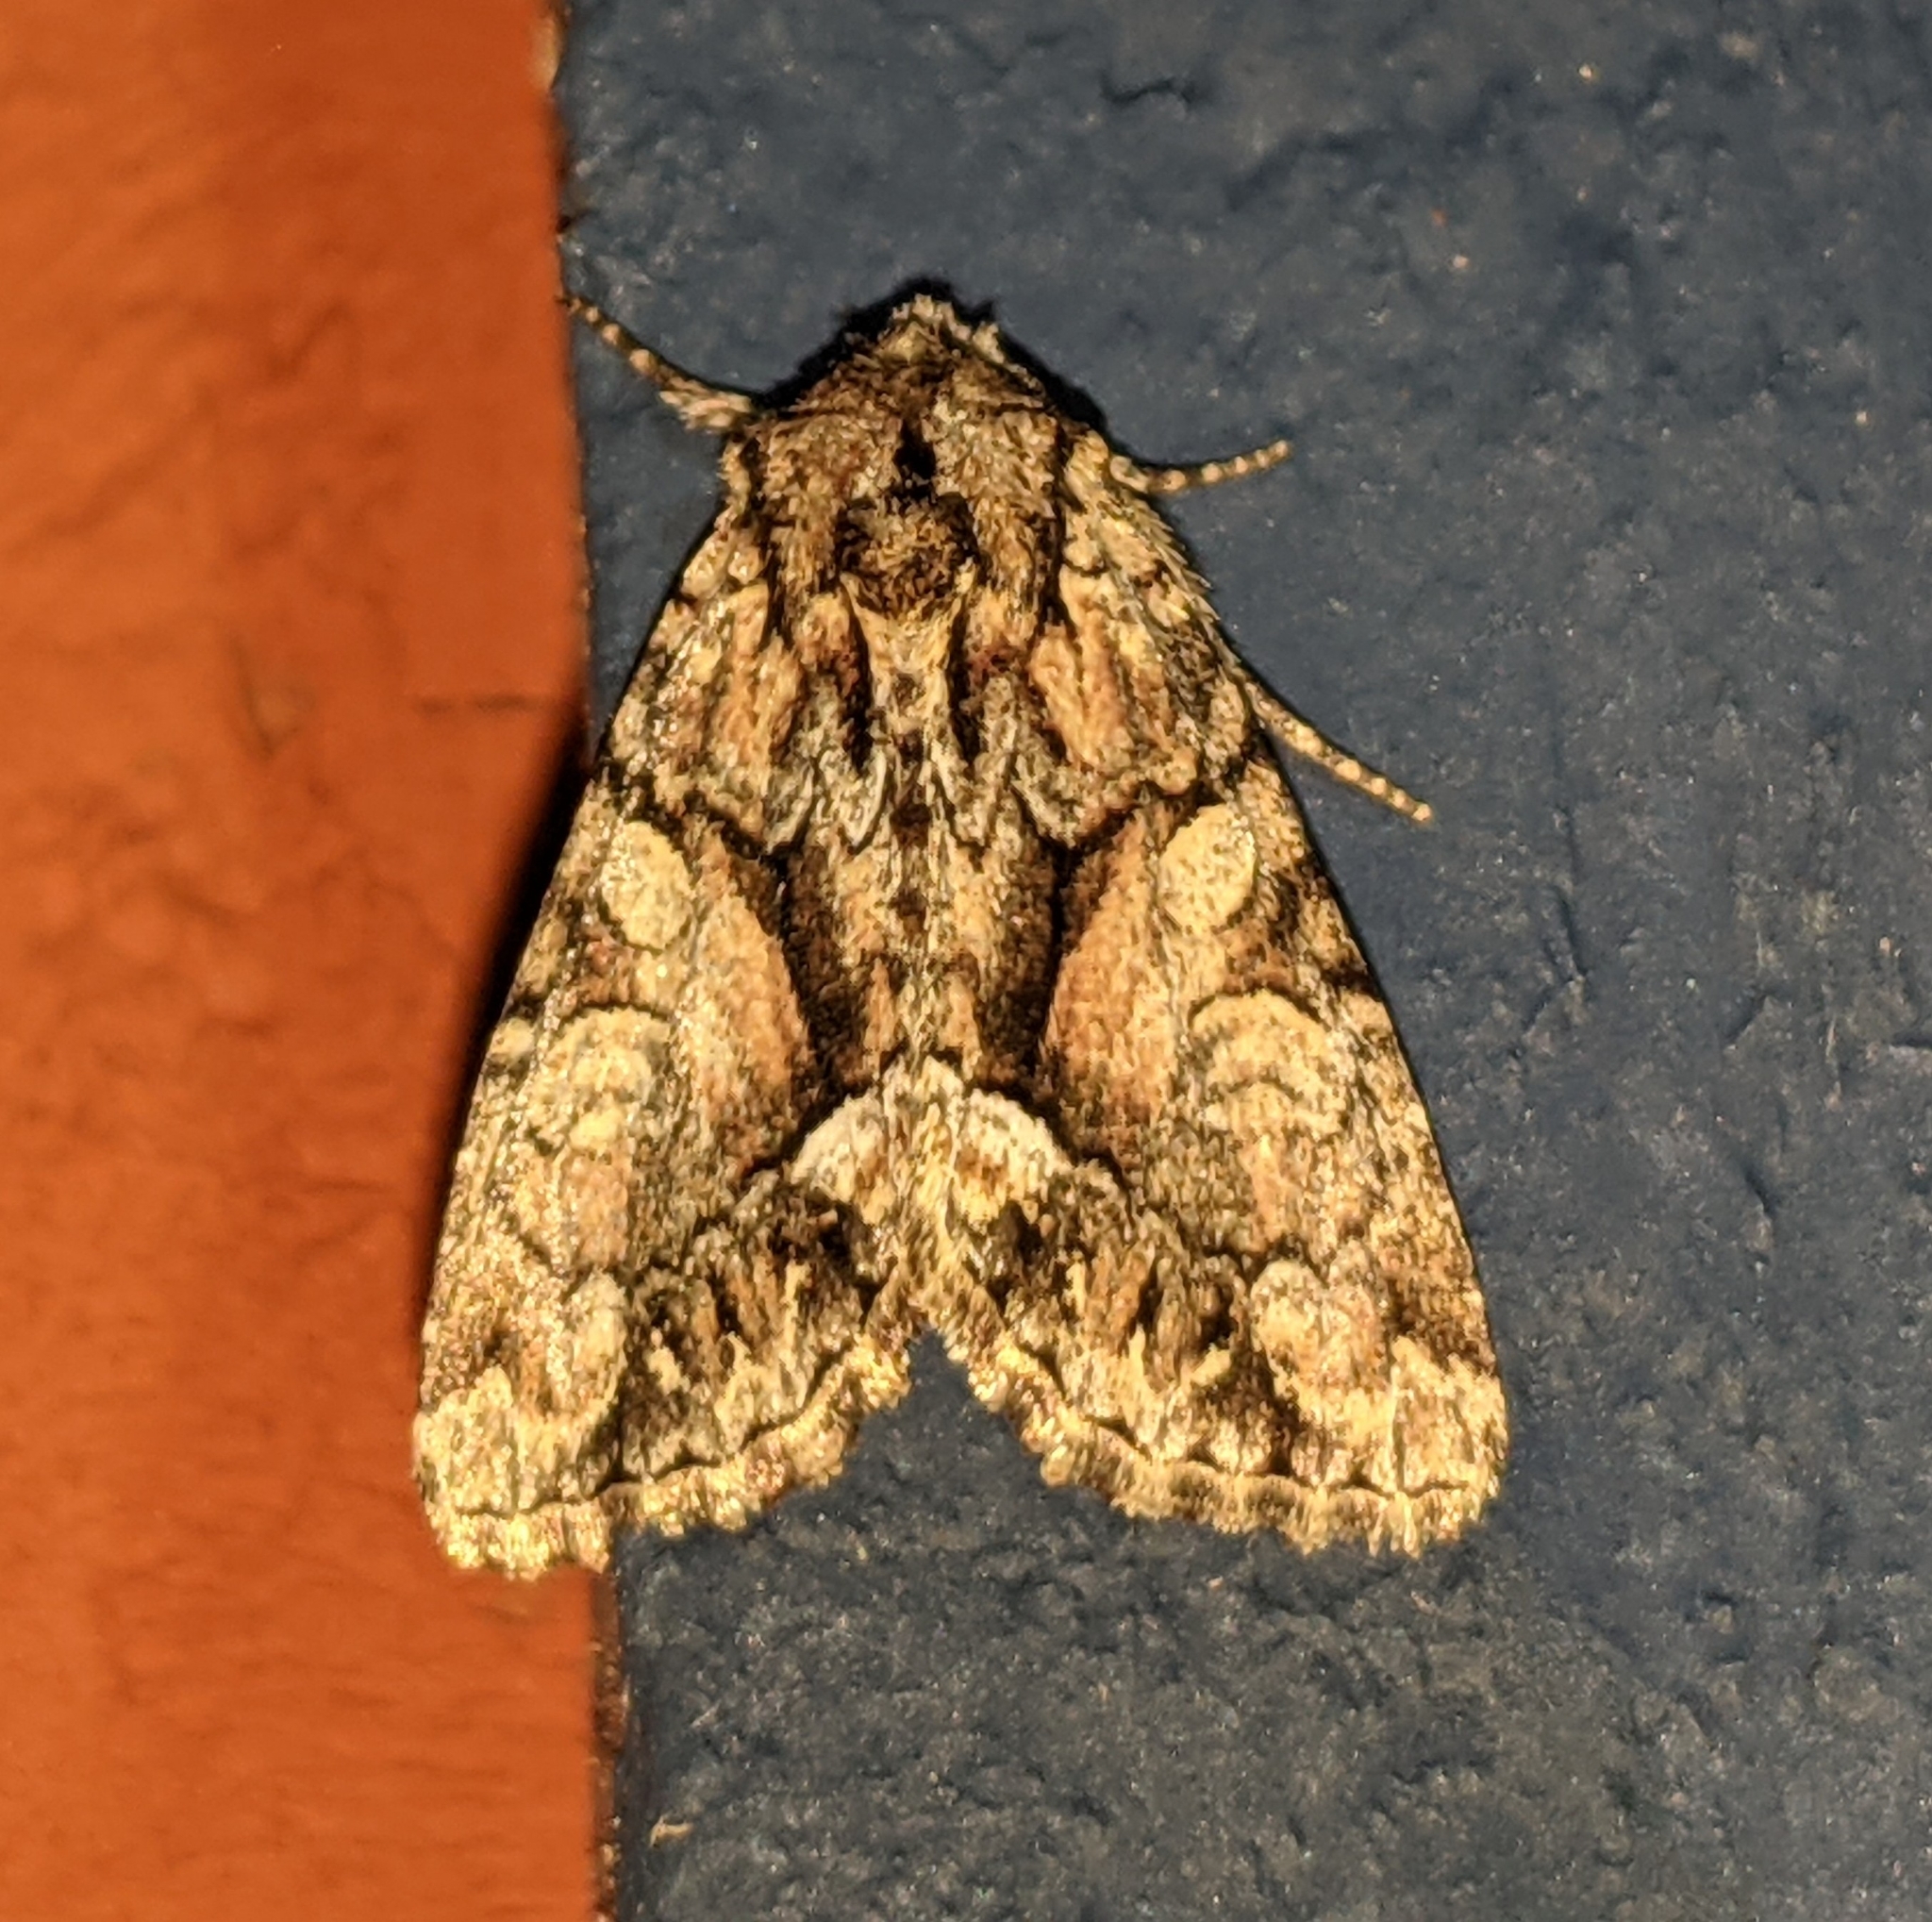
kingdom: Animalia
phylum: Arthropoda
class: Insecta
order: Lepidoptera
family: Noctuidae
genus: Oligia
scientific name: Oligia divesta
